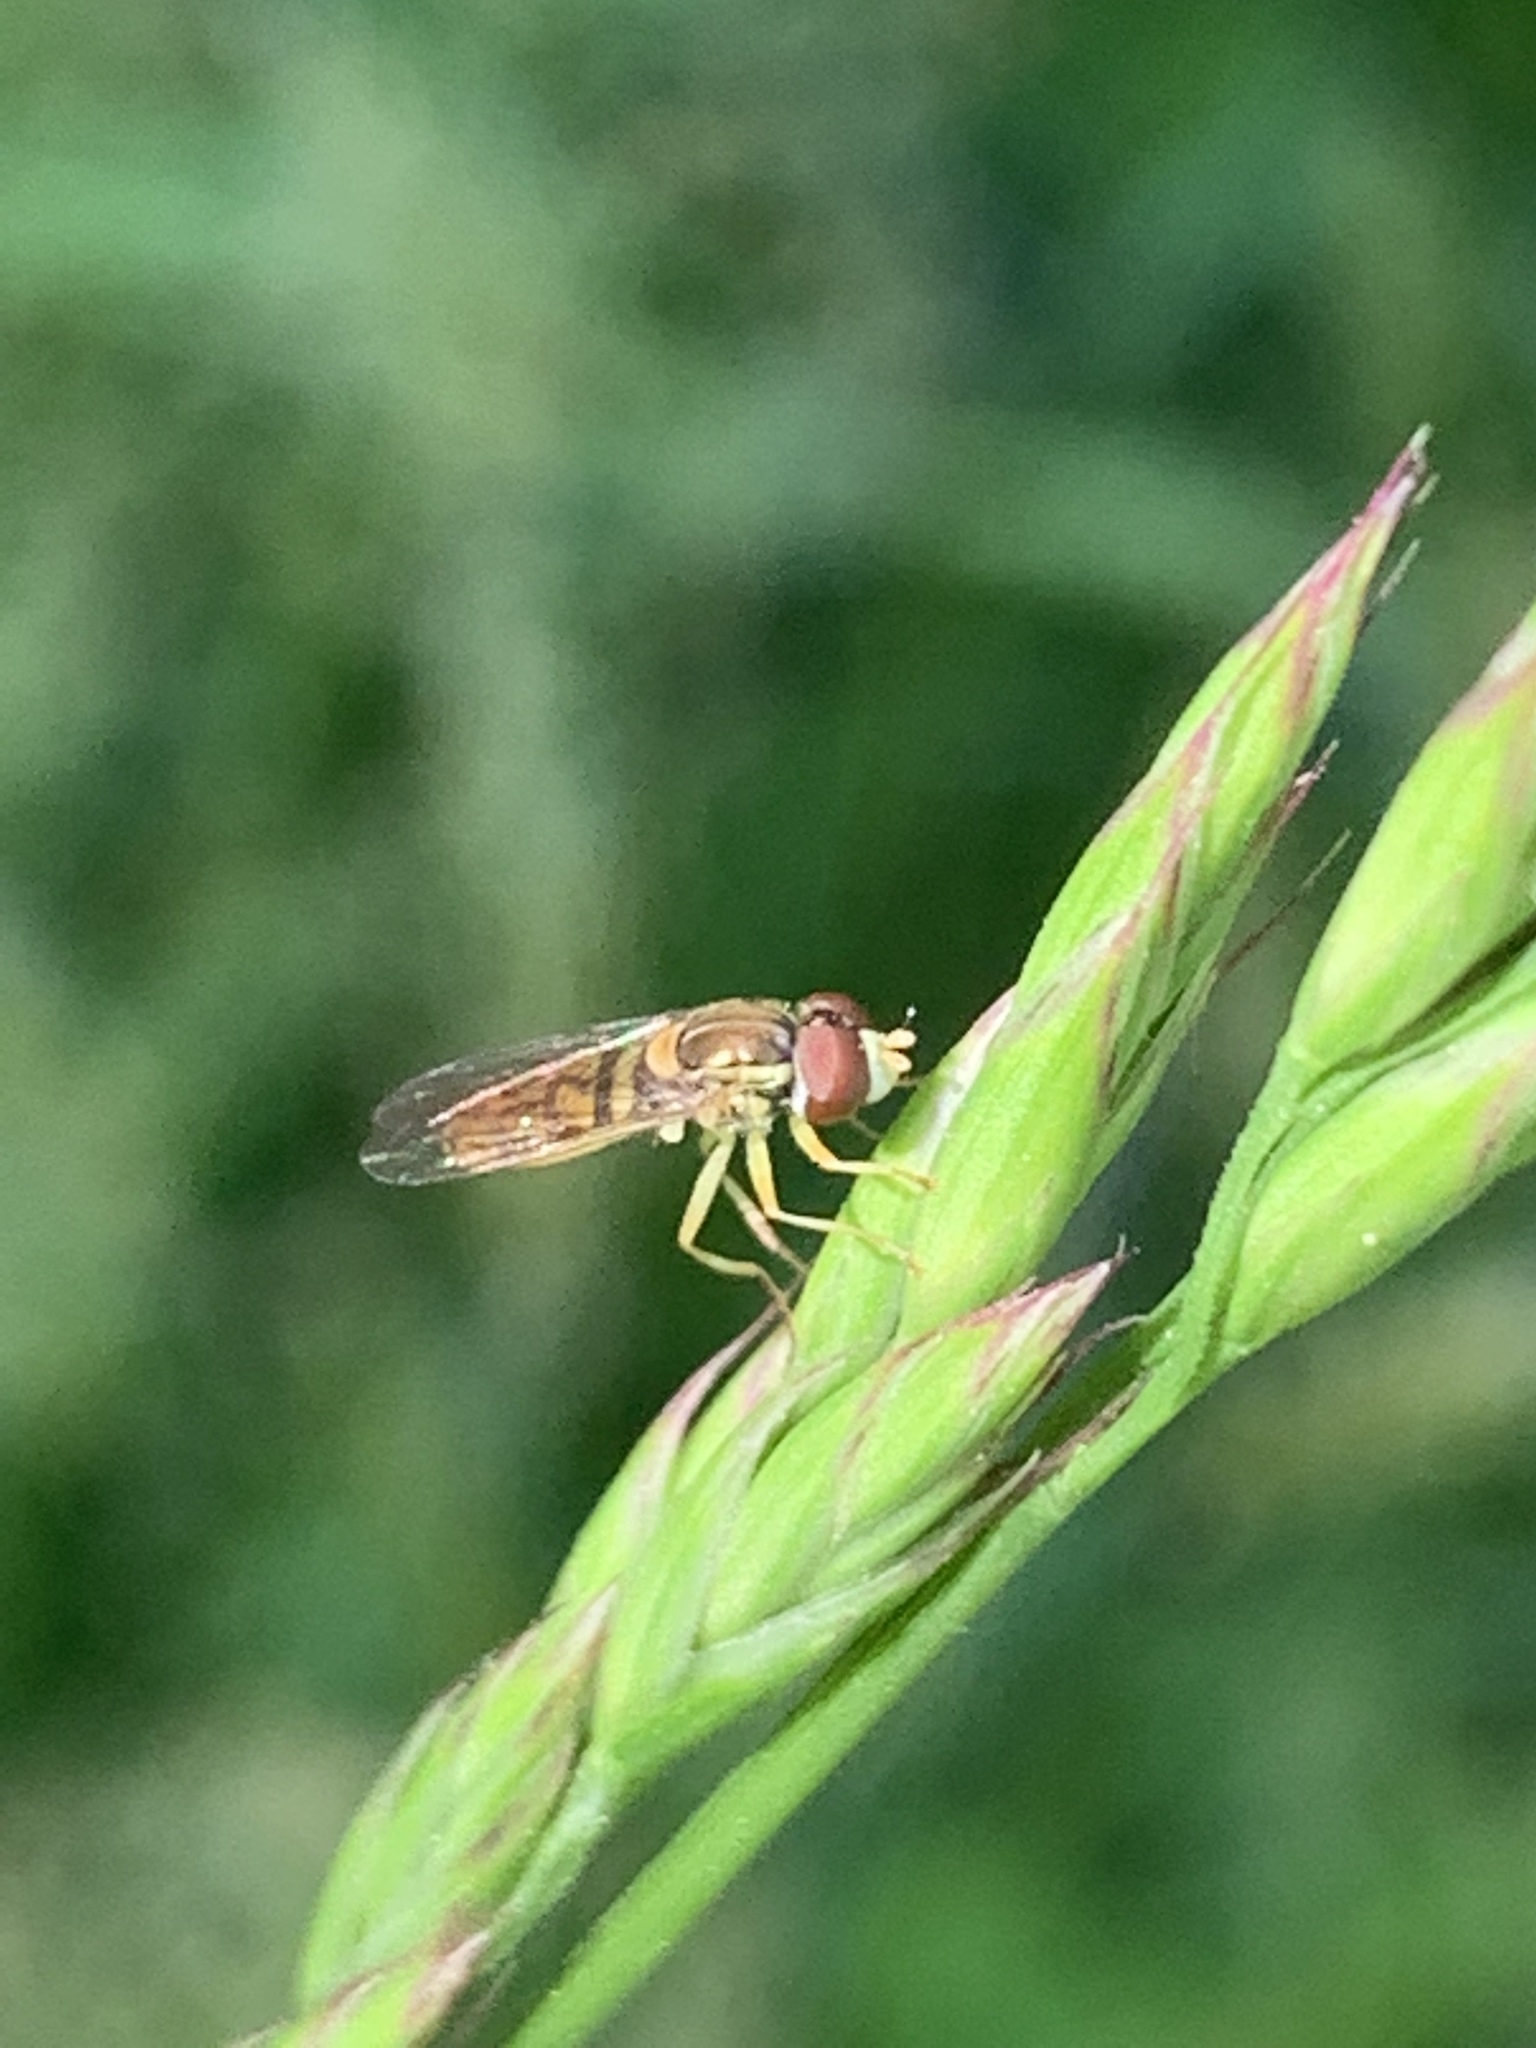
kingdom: Animalia
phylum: Arthropoda
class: Insecta
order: Diptera
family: Syrphidae
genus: Toxomerus
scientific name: Toxomerus marginatus
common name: Syrphid fly
